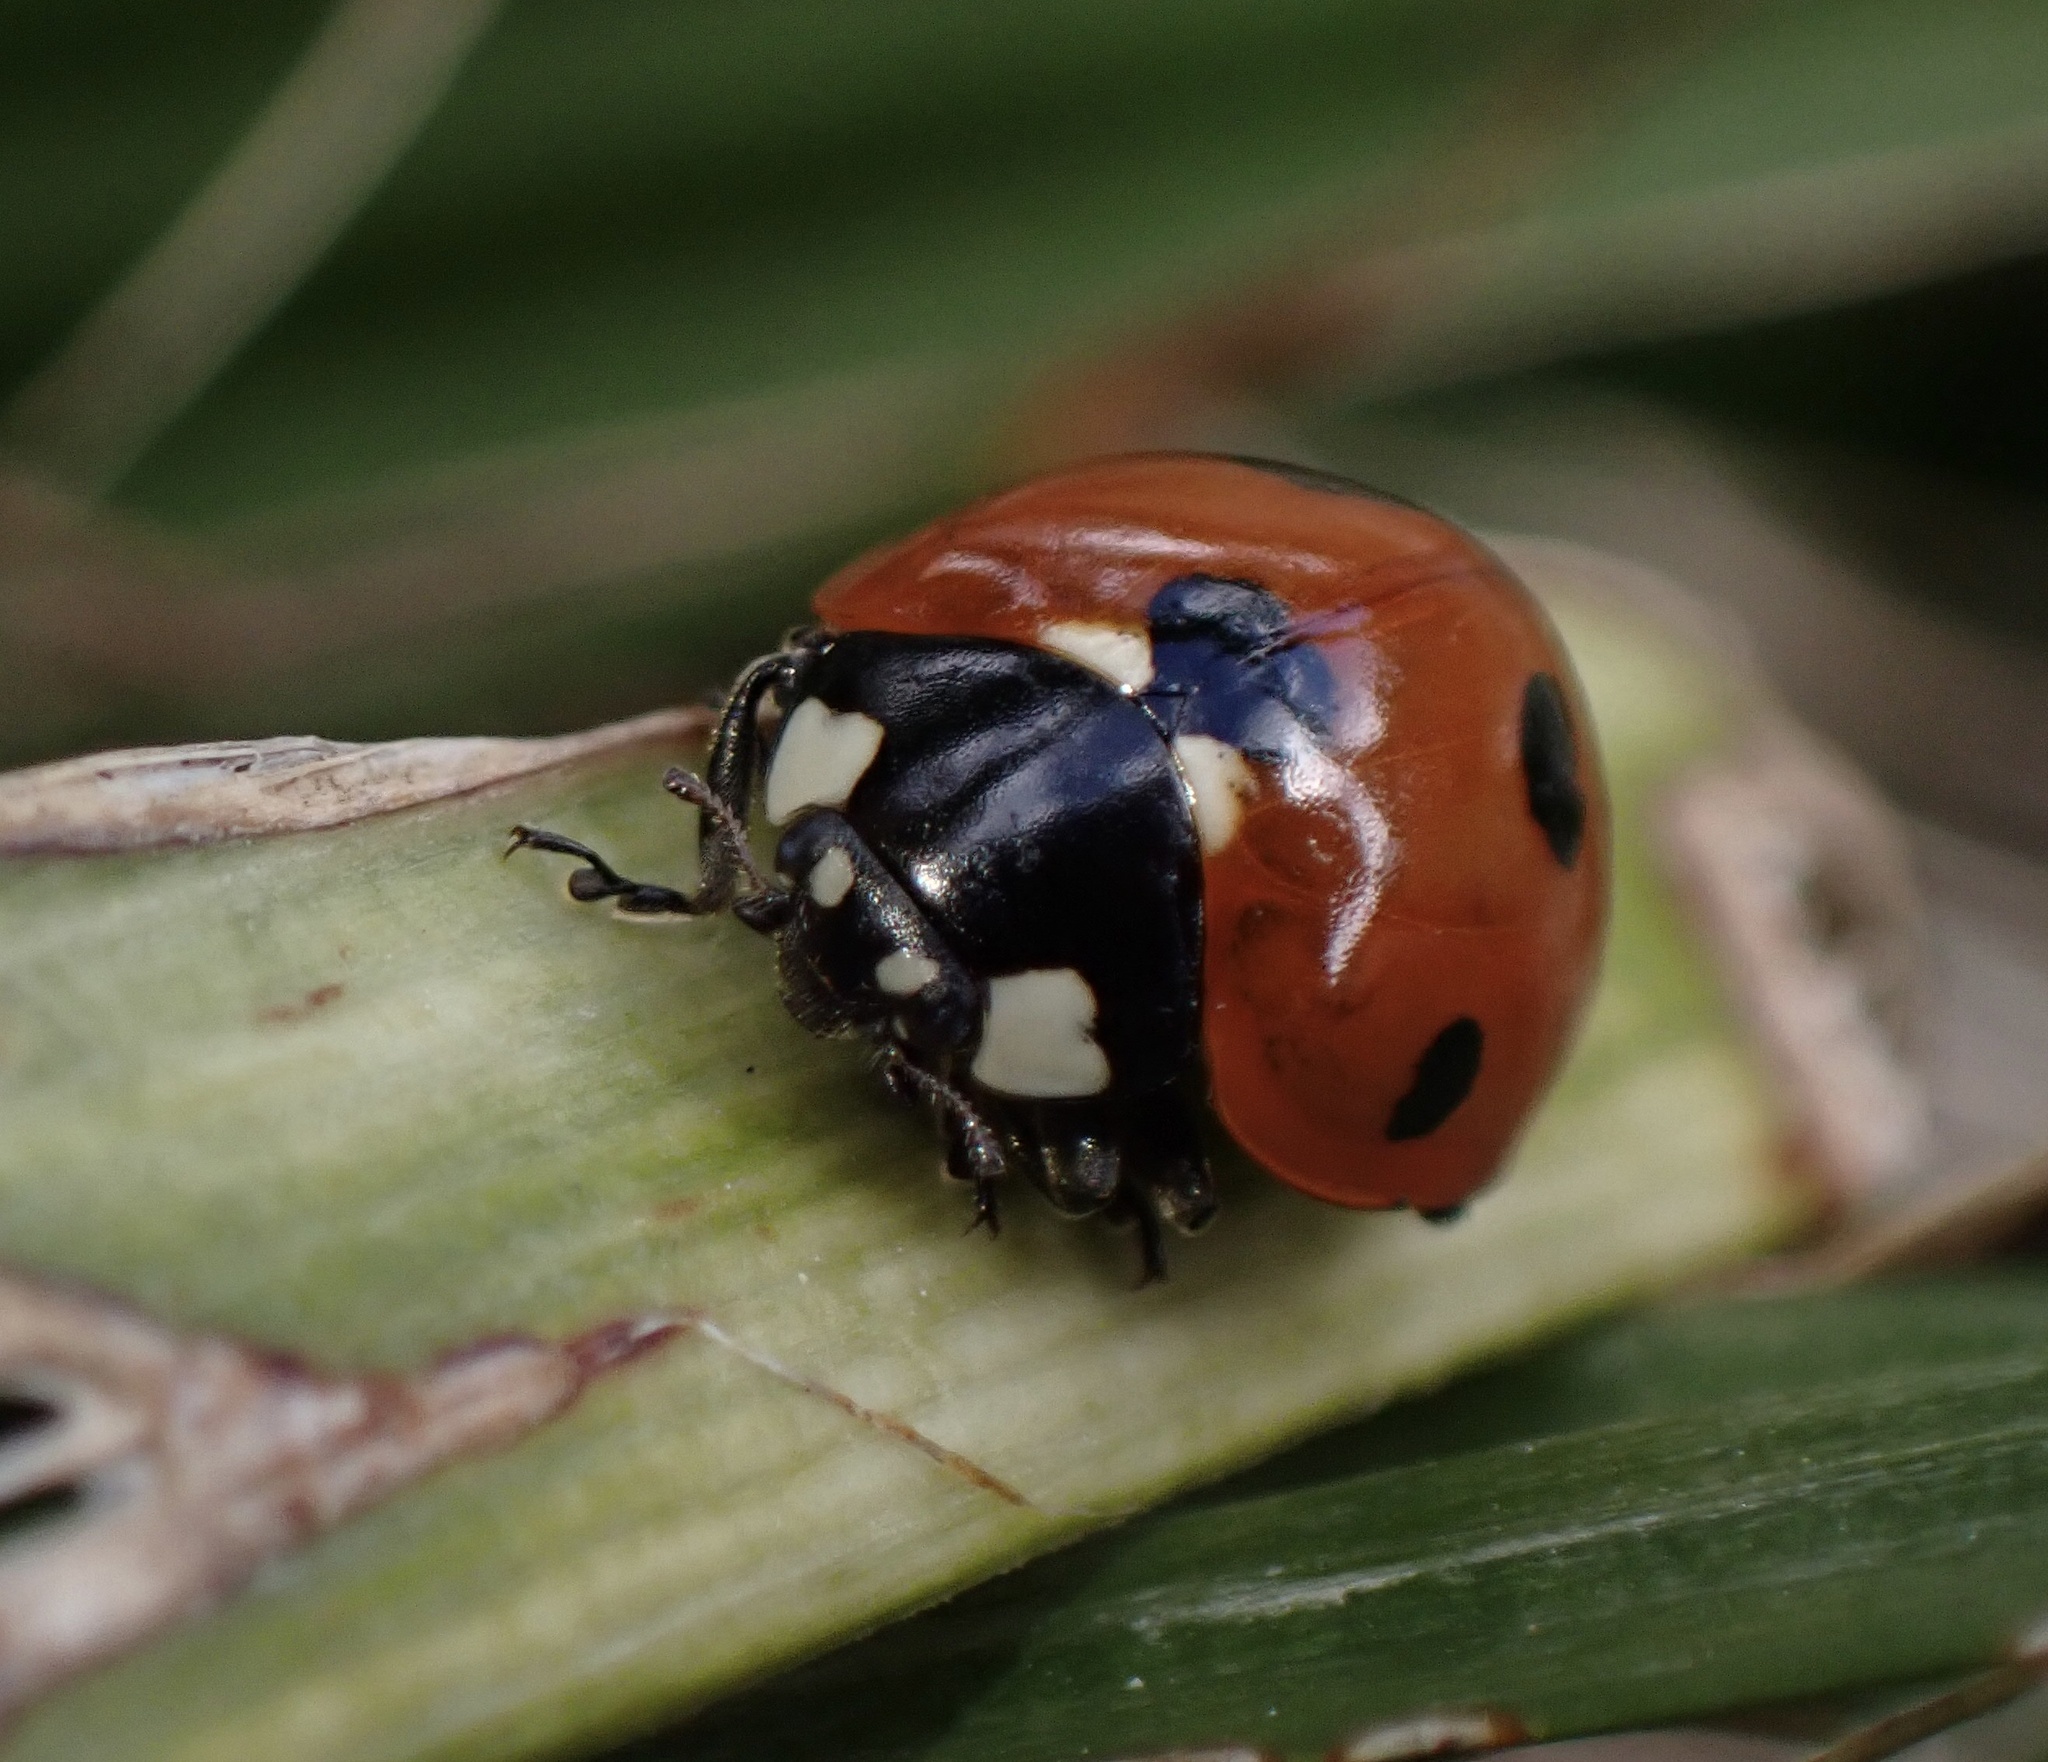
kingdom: Animalia
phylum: Arthropoda
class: Insecta
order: Coleoptera
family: Coccinellidae
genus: Coccinella
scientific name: Coccinella septempunctata
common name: Sevenspotted lady beetle
